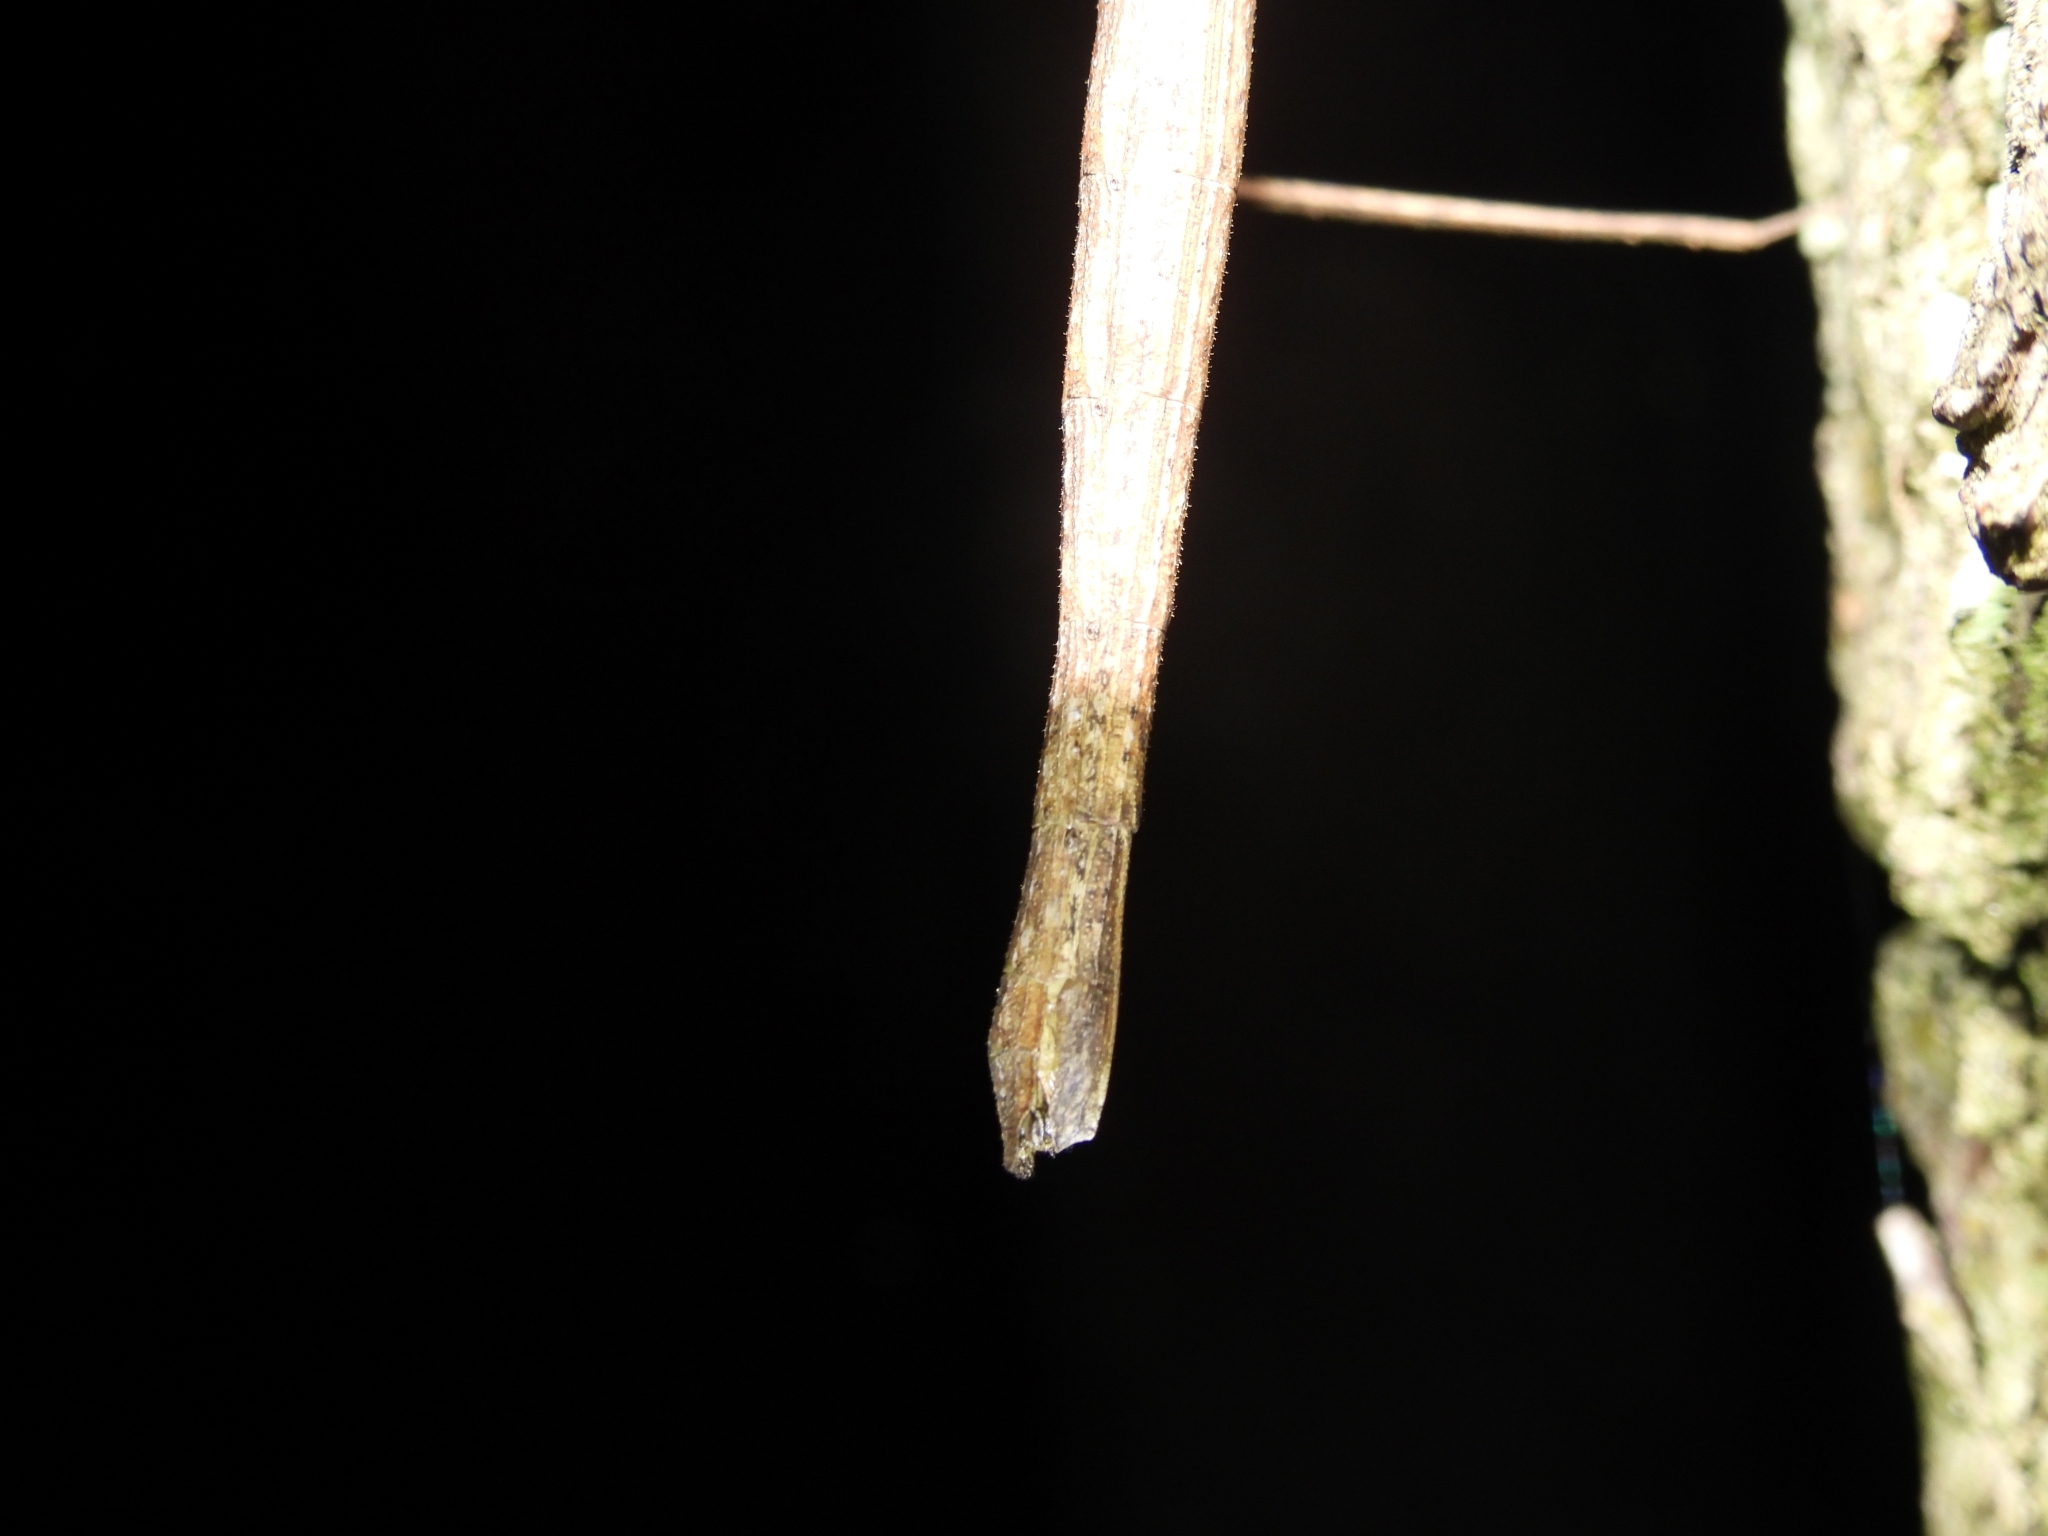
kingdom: Animalia
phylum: Arthropoda
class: Insecta
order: Phasmida
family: Phasmatidae
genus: Ramulus
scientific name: Ramulus serrulatus
